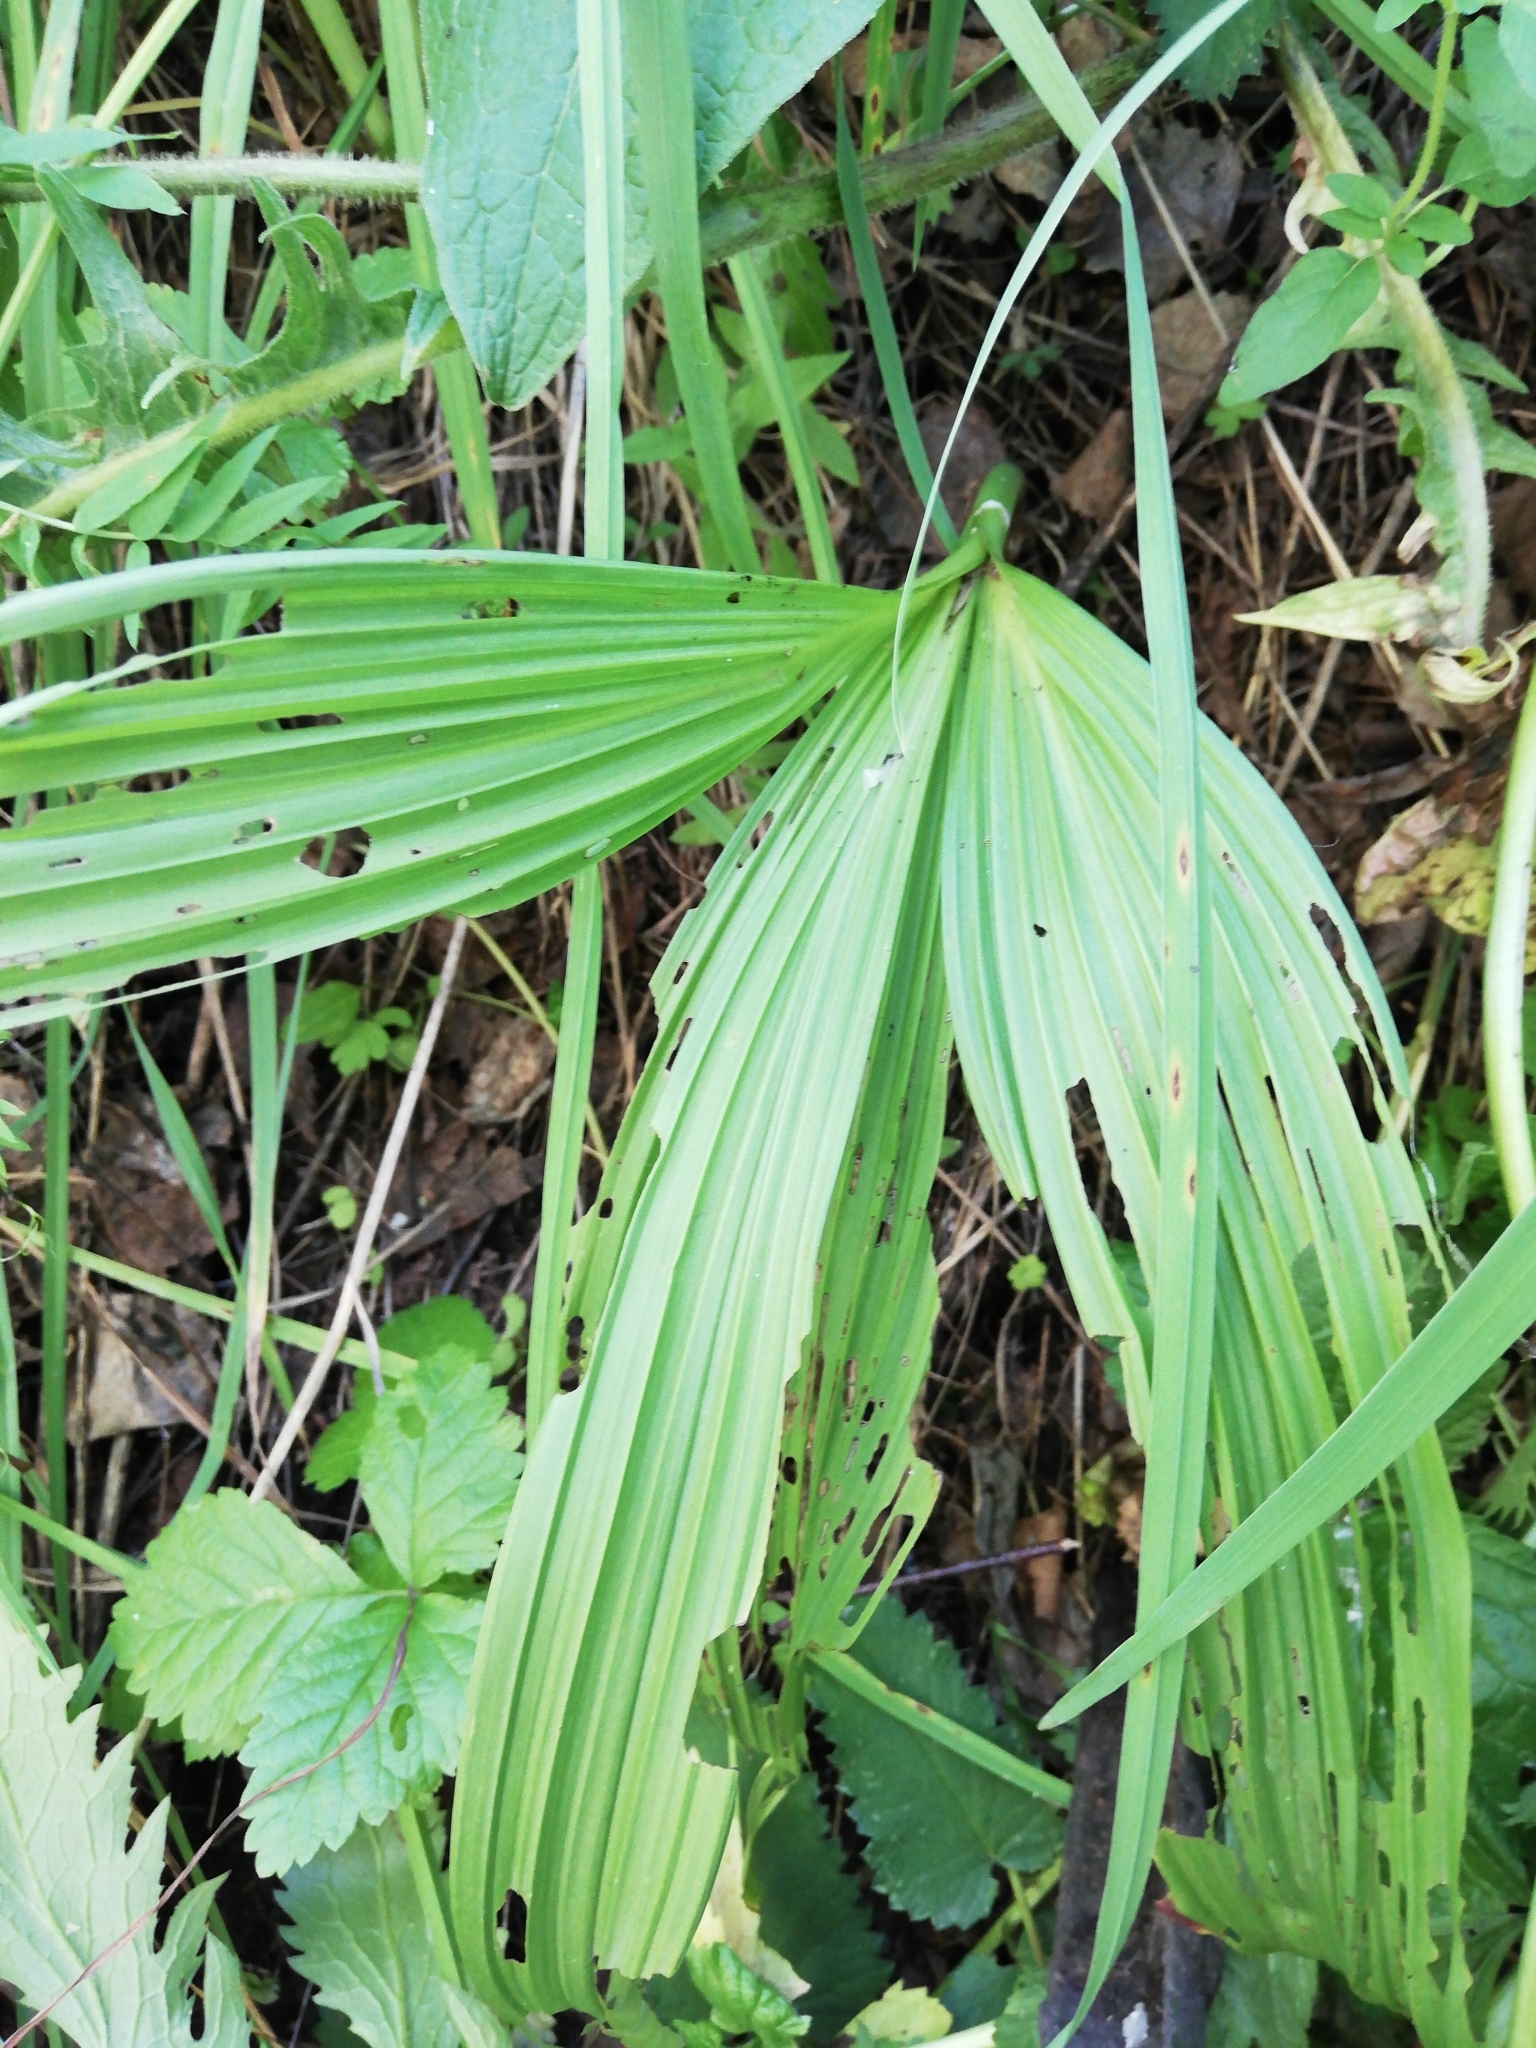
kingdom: Plantae
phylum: Tracheophyta
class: Liliopsida
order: Liliales
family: Melanthiaceae
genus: Veratrum
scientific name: Veratrum nigrum
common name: Black veratrum
